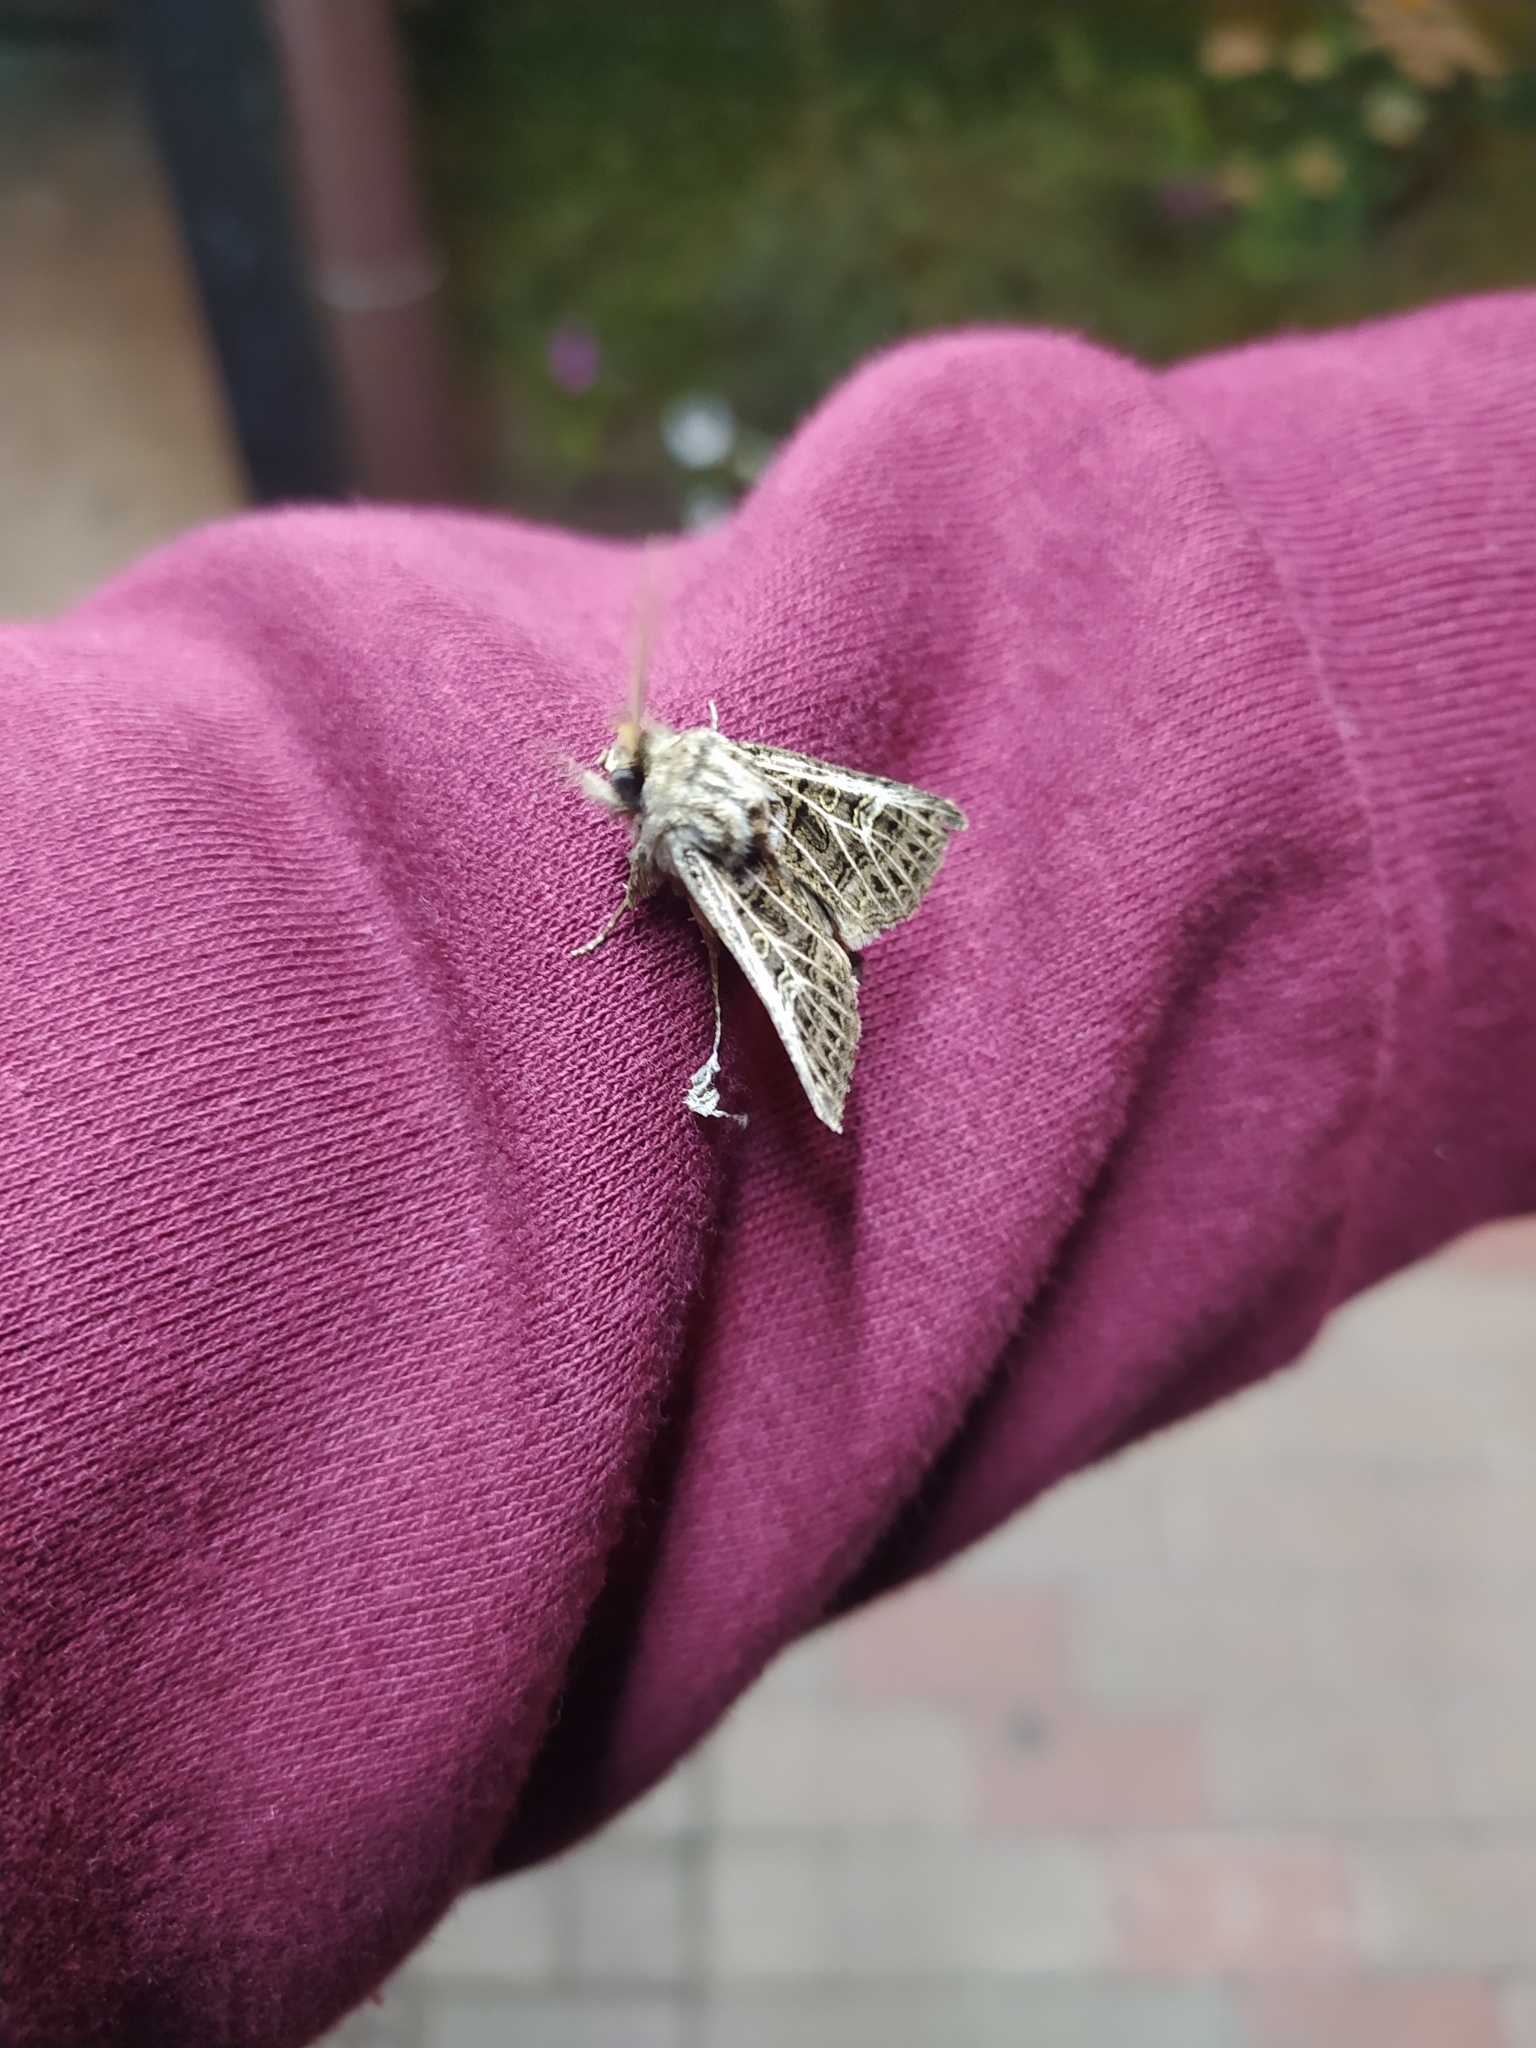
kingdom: Animalia
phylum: Arthropoda
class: Insecta
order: Lepidoptera
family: Noctuidae
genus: Tholera
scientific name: Tholera decimalis
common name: Feathered gothic
